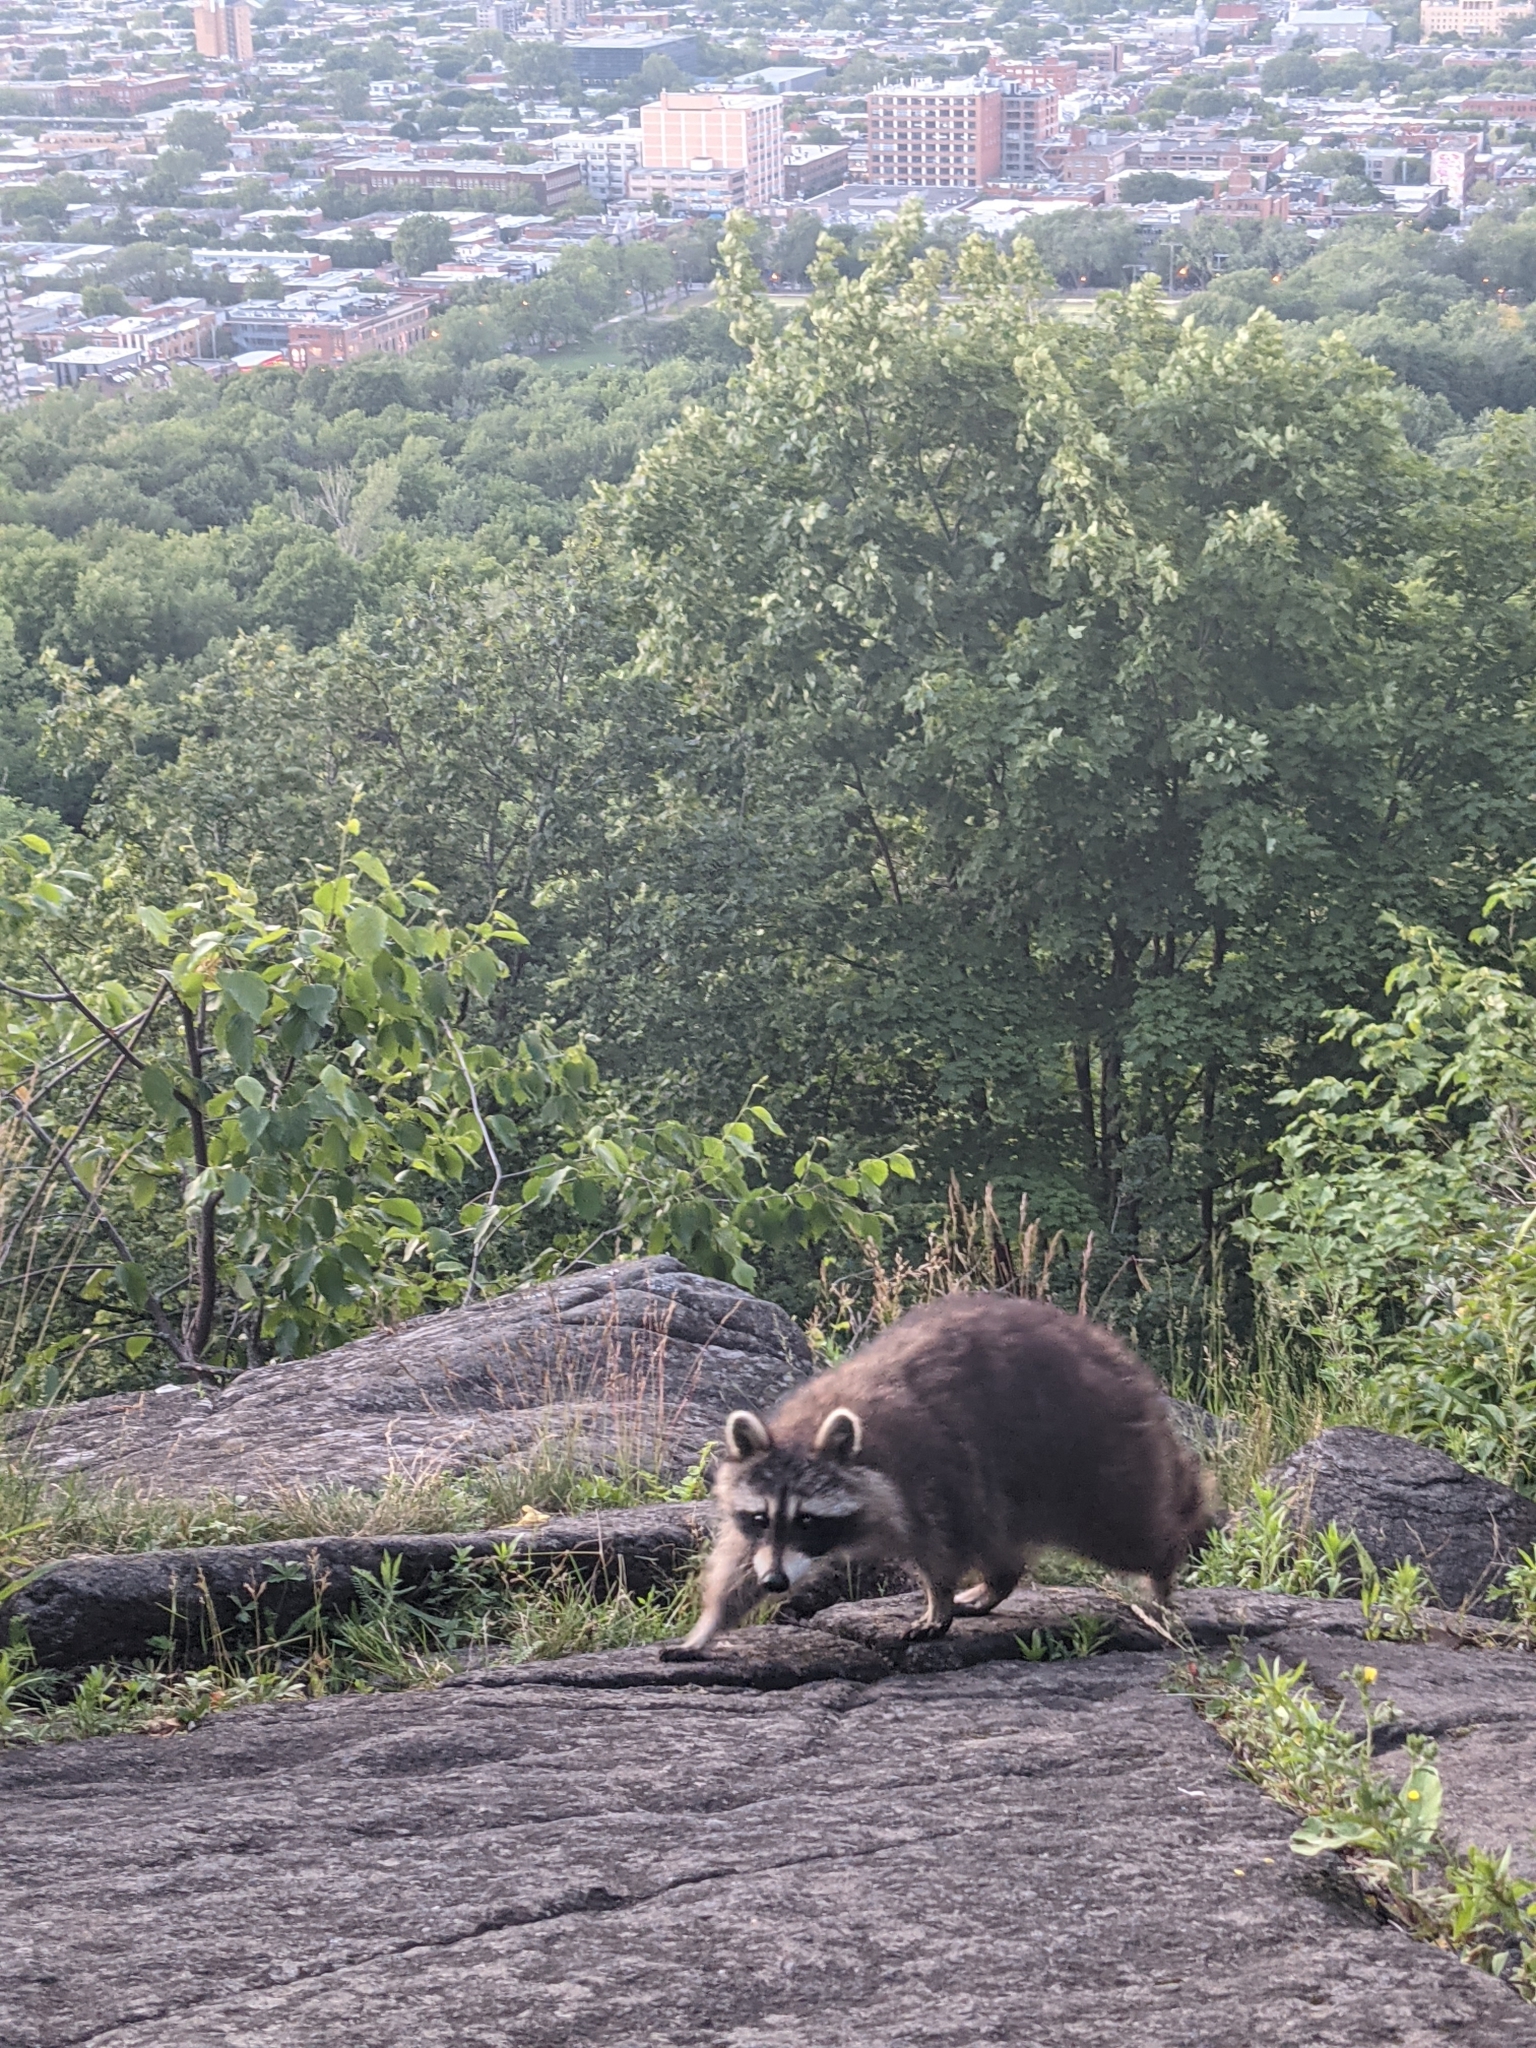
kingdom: Animalia
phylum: Chordata
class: Mammalia
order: Carnivora
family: Procyonidae
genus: Procyon
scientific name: Procyon lotor
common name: Raccoon
